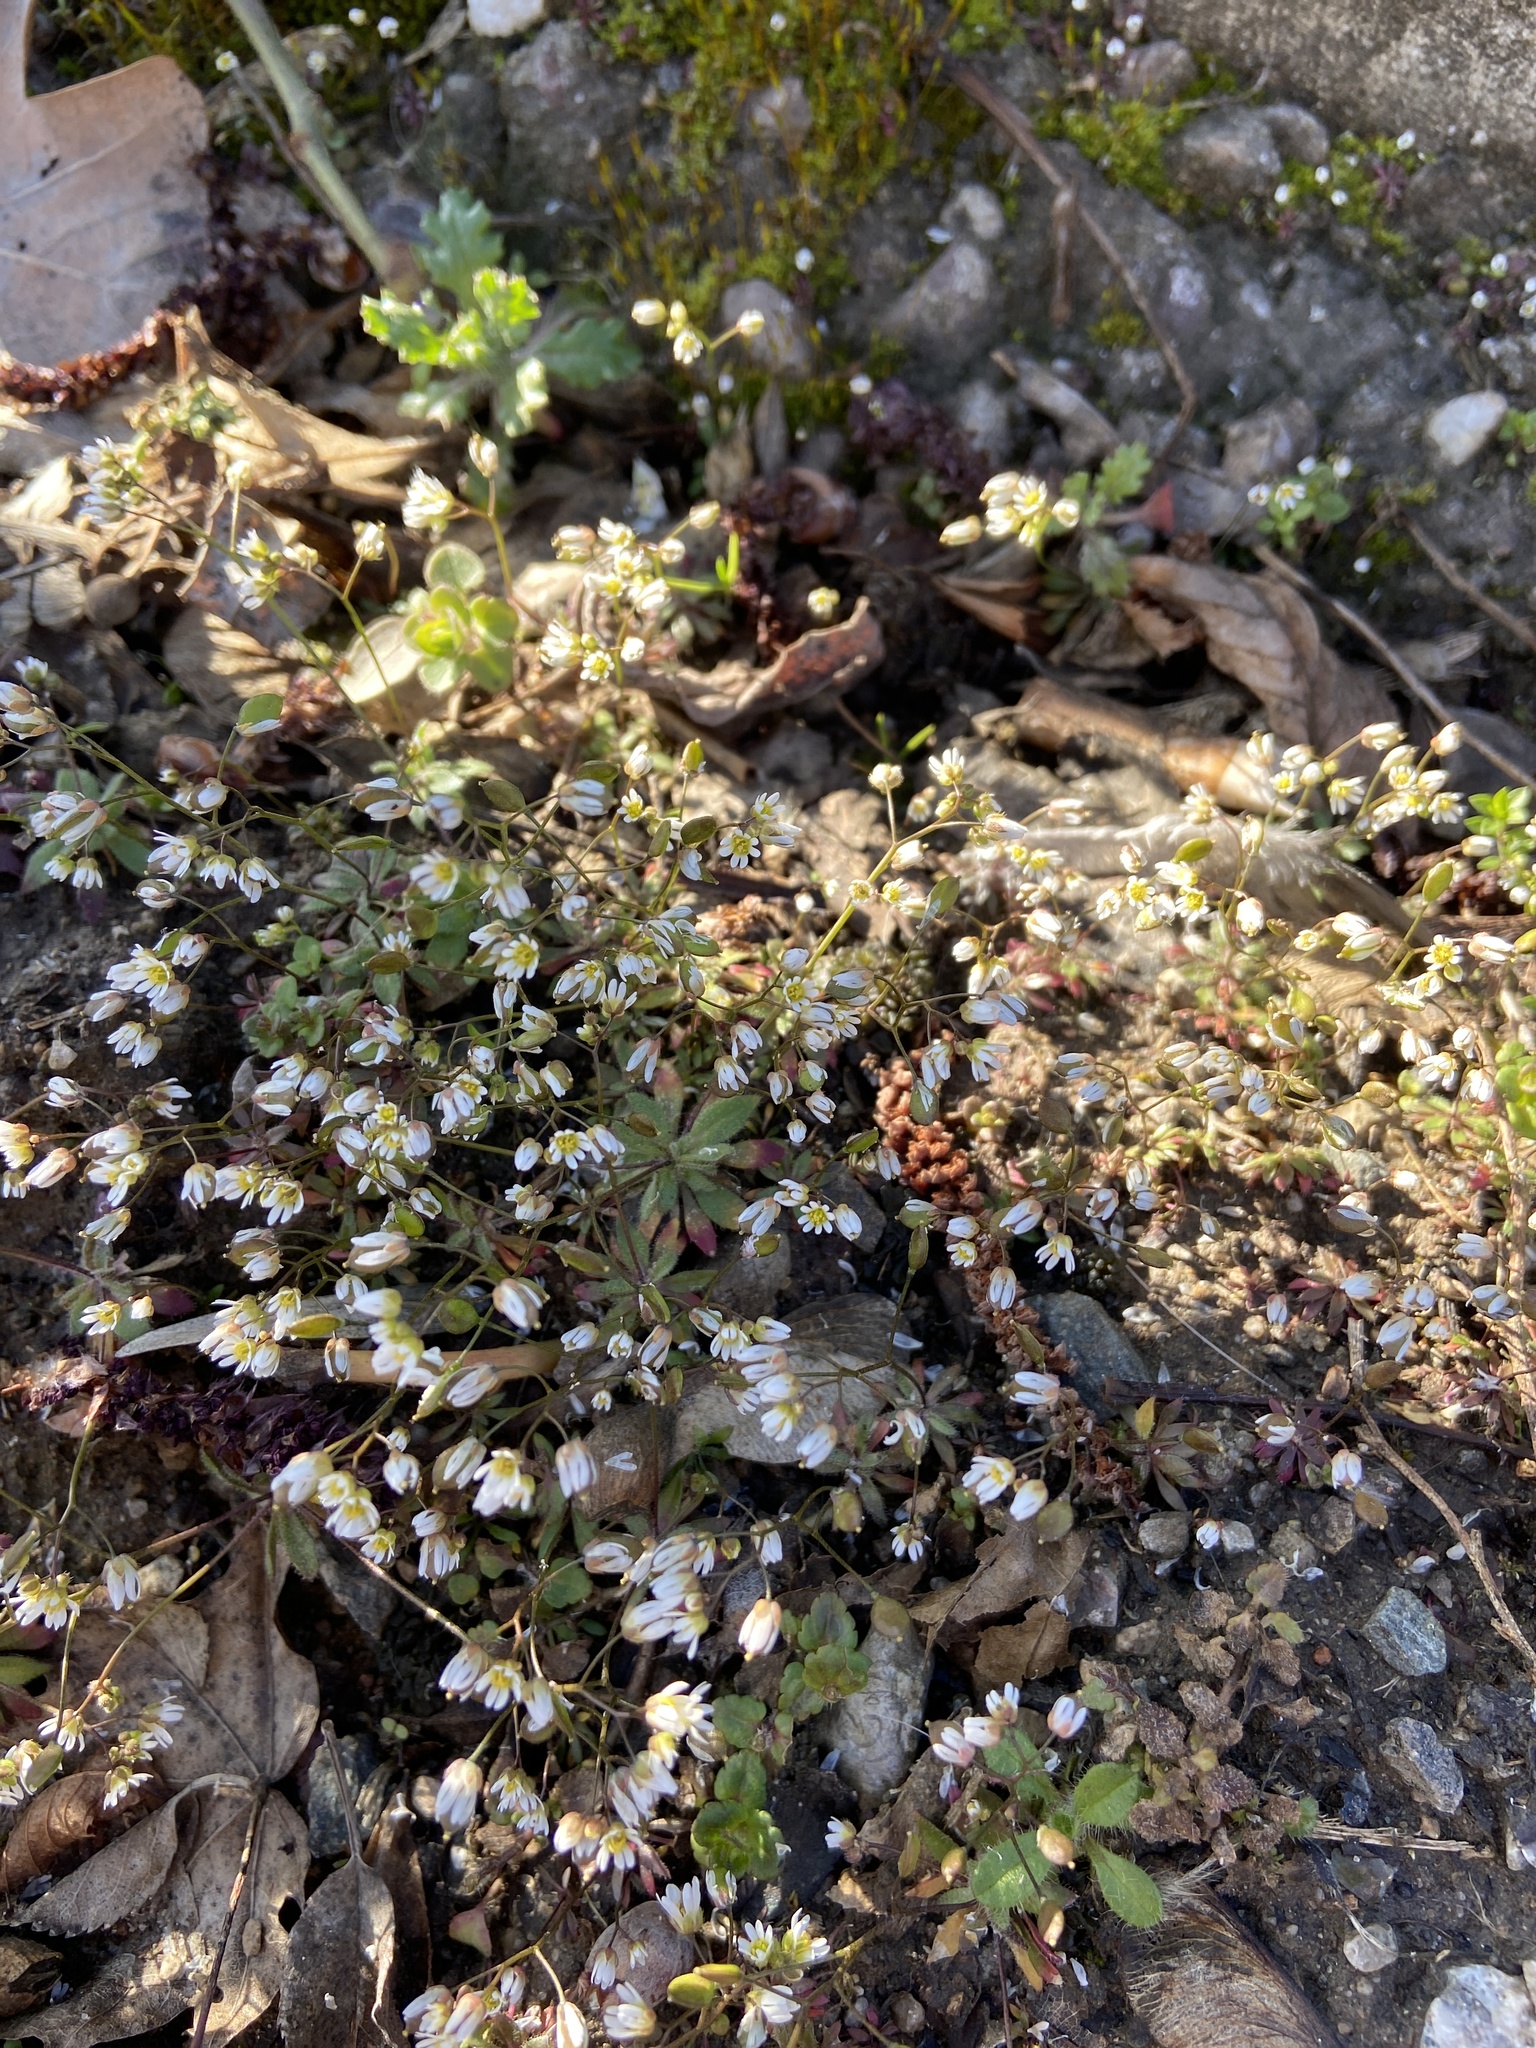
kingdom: Plantae
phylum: Tracheophyta
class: Magnoliopsida
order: Brassicales
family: Brassicaceae
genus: Draba
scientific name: Draba verna
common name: Spring draba
